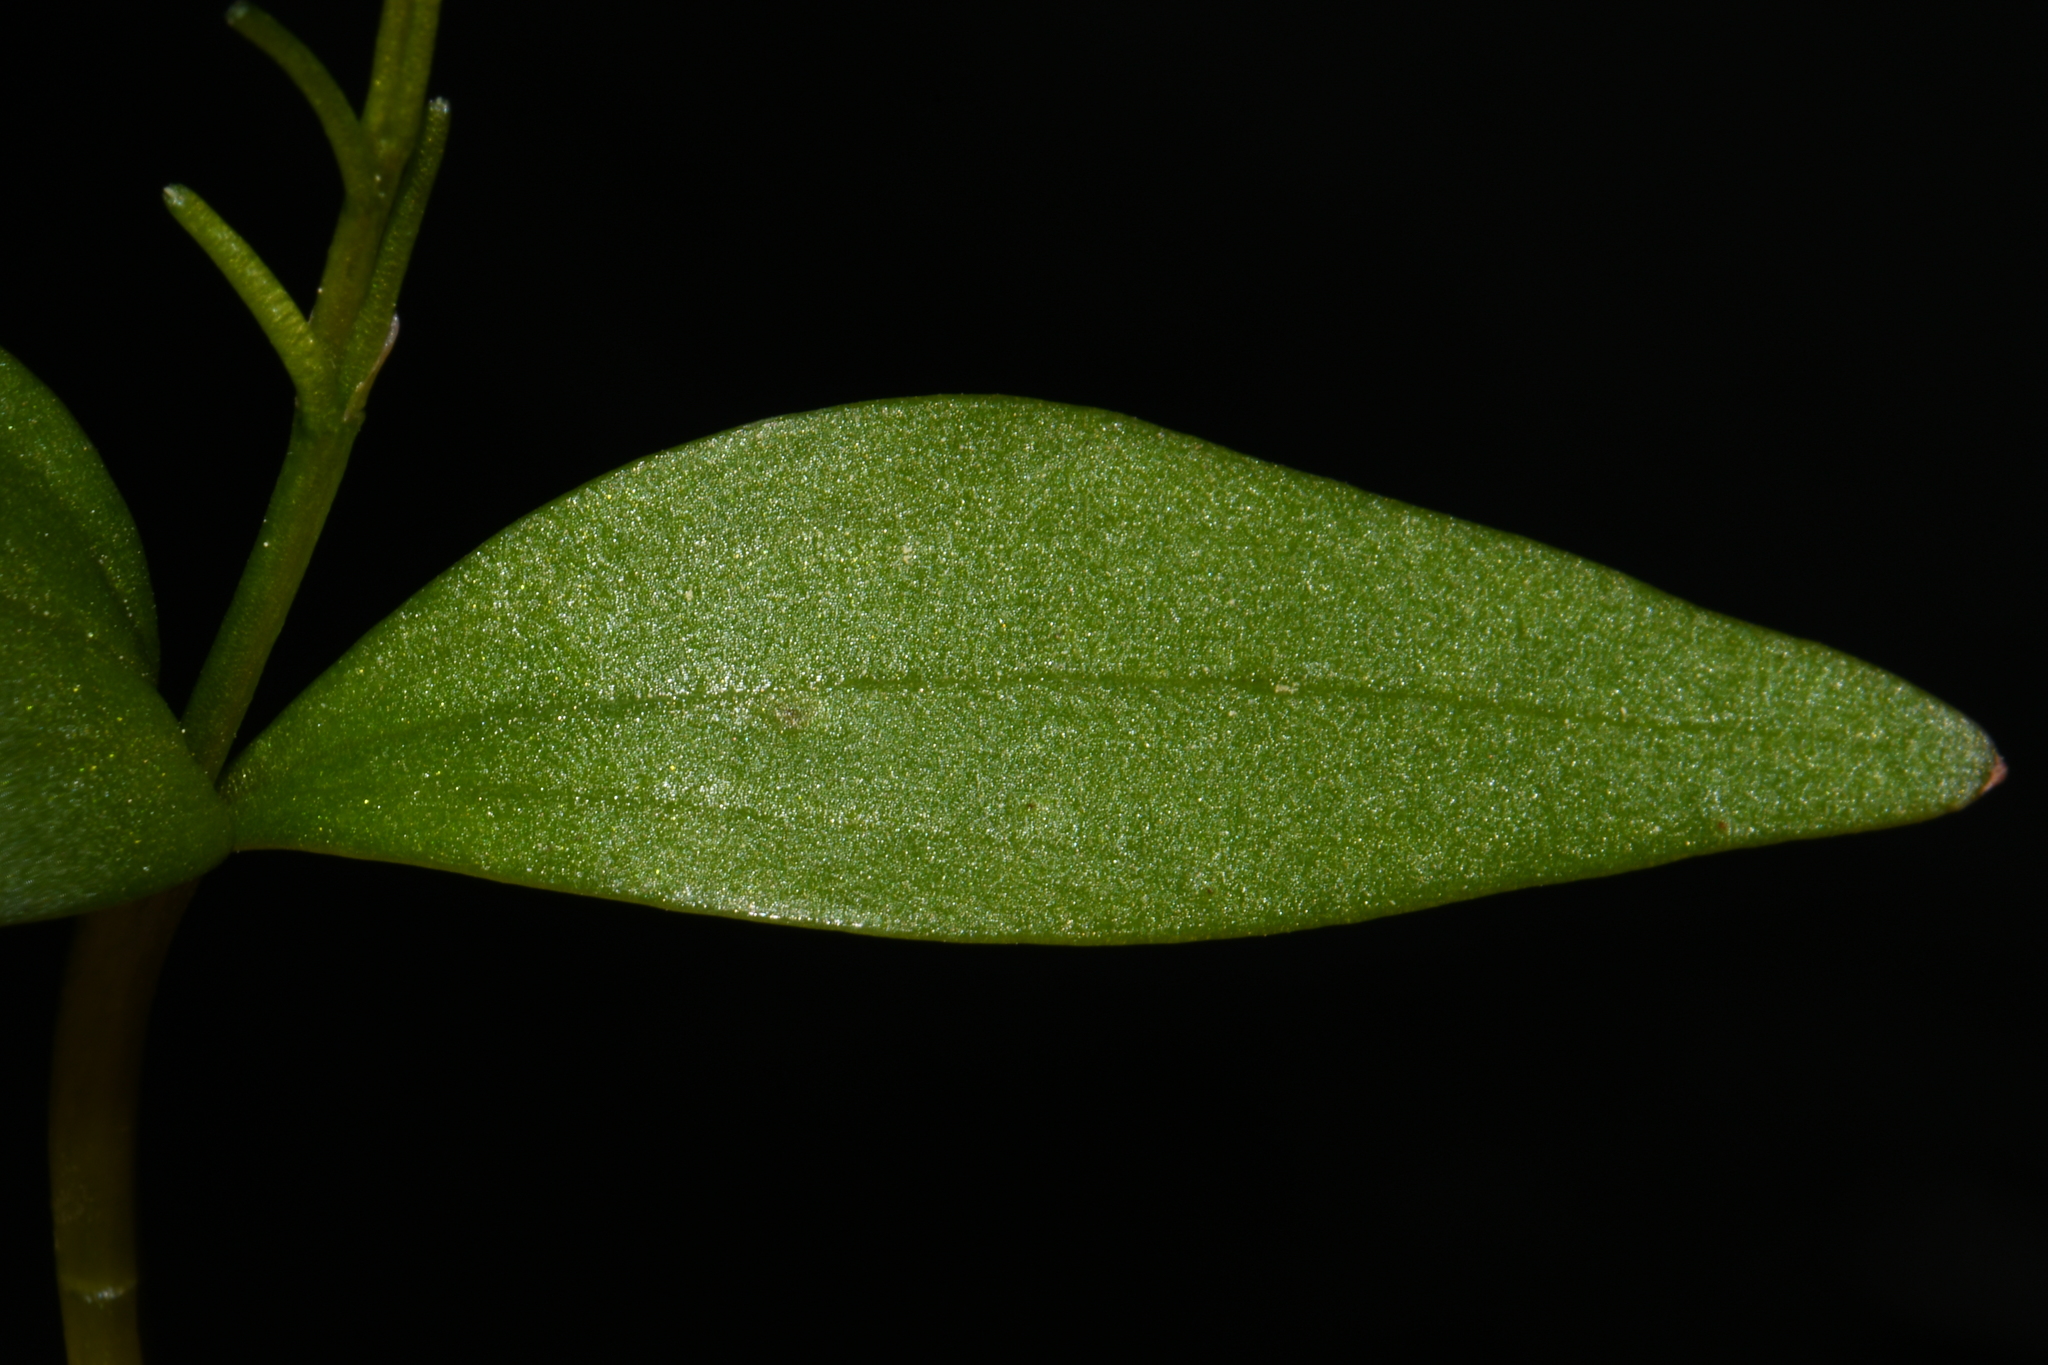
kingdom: Plantae
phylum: Tracheophyta
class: Magnoliopsida
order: Caryophyllales
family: Montiaceae
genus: Claytonia
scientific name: Claytonia lanceolata
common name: Western spring-beauty
